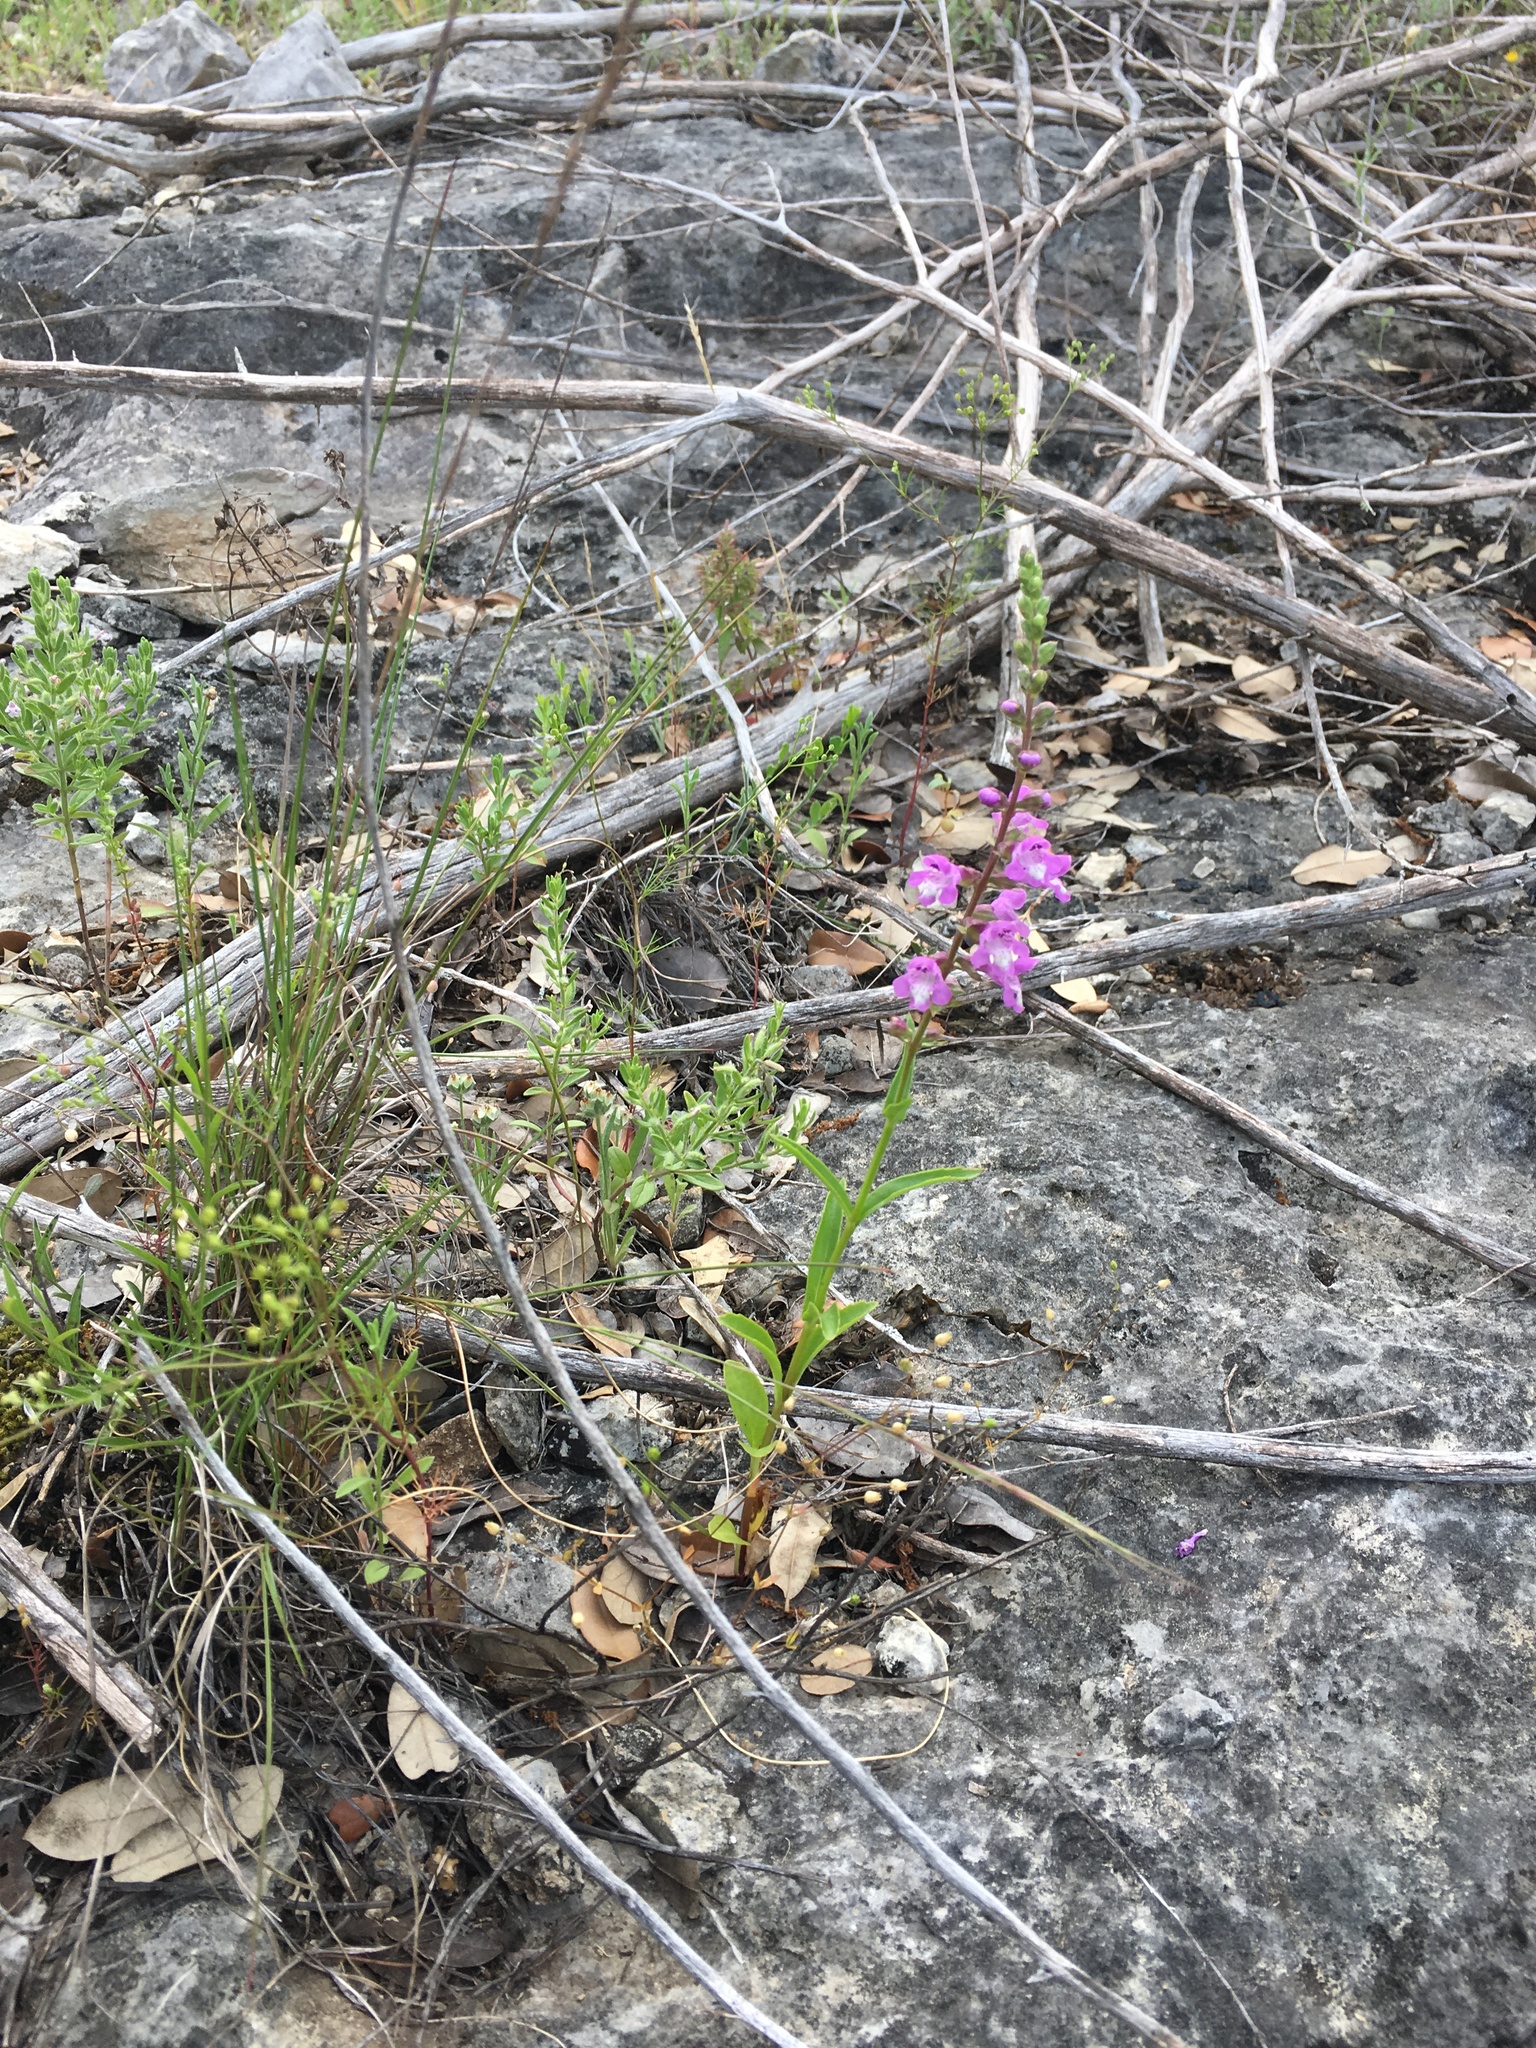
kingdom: Plantae
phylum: Tracheophyta
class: Magnoliopsida
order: Lamiales
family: Lamiaceae
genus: Warnockia
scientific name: Warnockia scutellarioides
